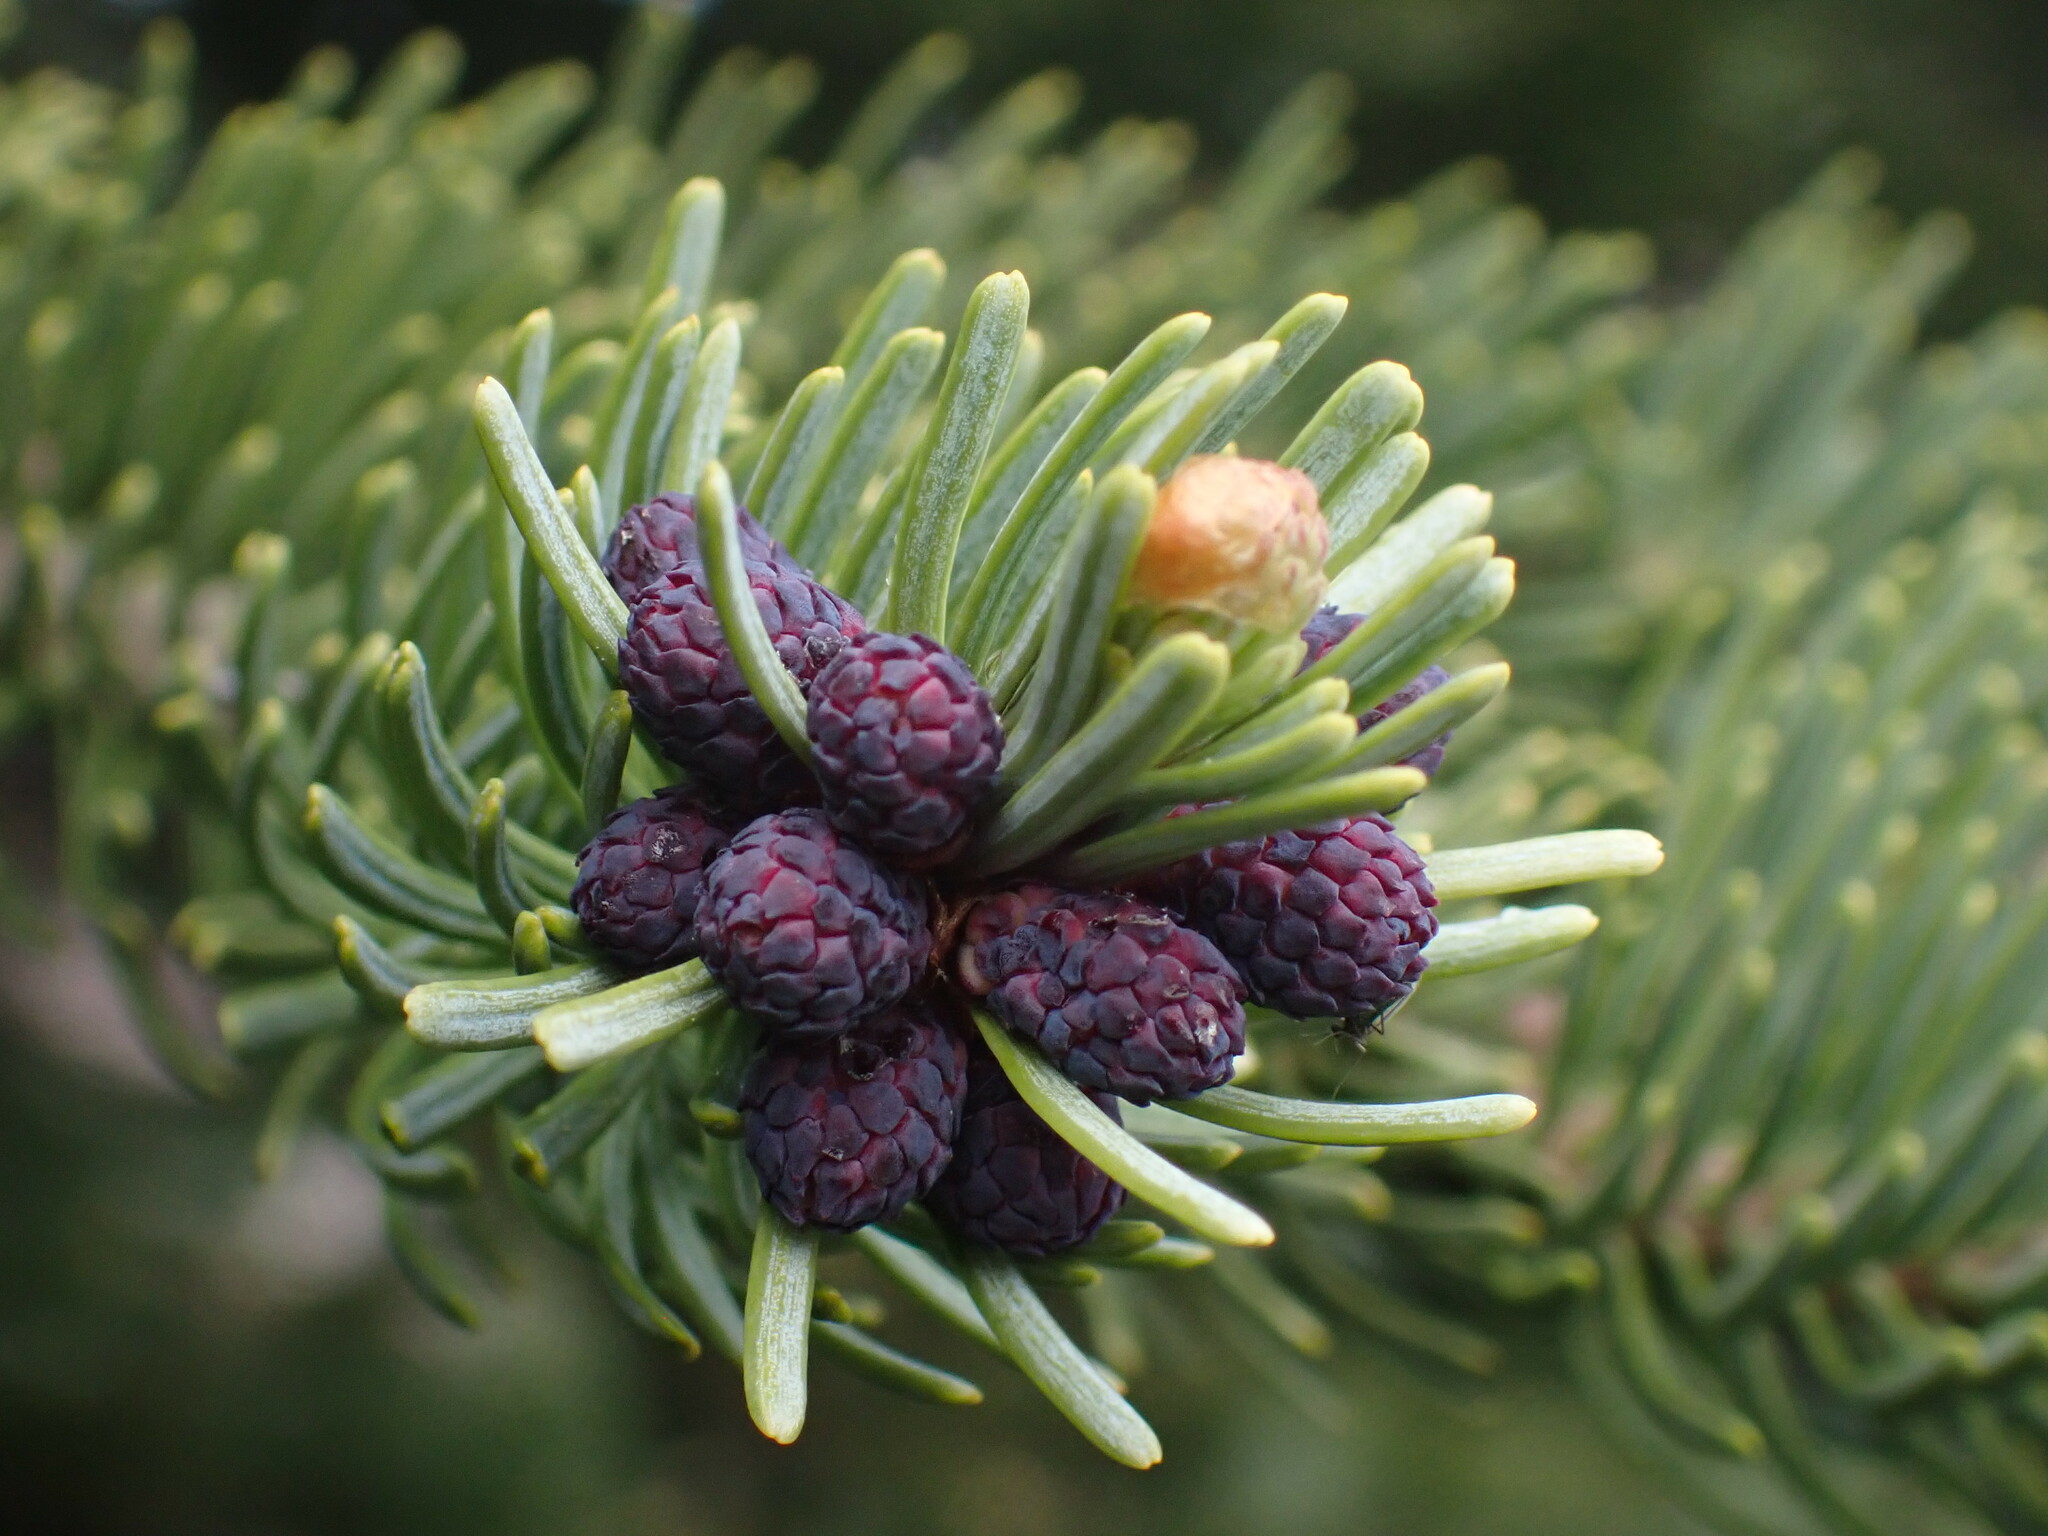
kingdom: Plantae
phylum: Tracheophyta
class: Pinopsida
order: Pinales
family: Pinaceae
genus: Abies
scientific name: Abies lasiocarpa
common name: Subalpine fir
